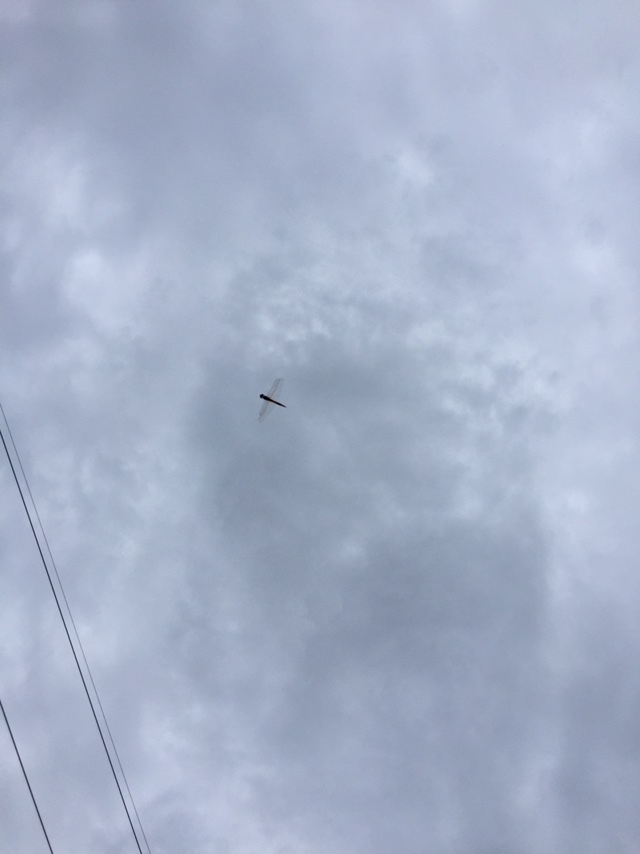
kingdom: Animalia
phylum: Arthropoda
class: Insecta
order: Odonata
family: Libellulidae
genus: Pantala
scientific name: Pantala flavescens
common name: Wandering glider
